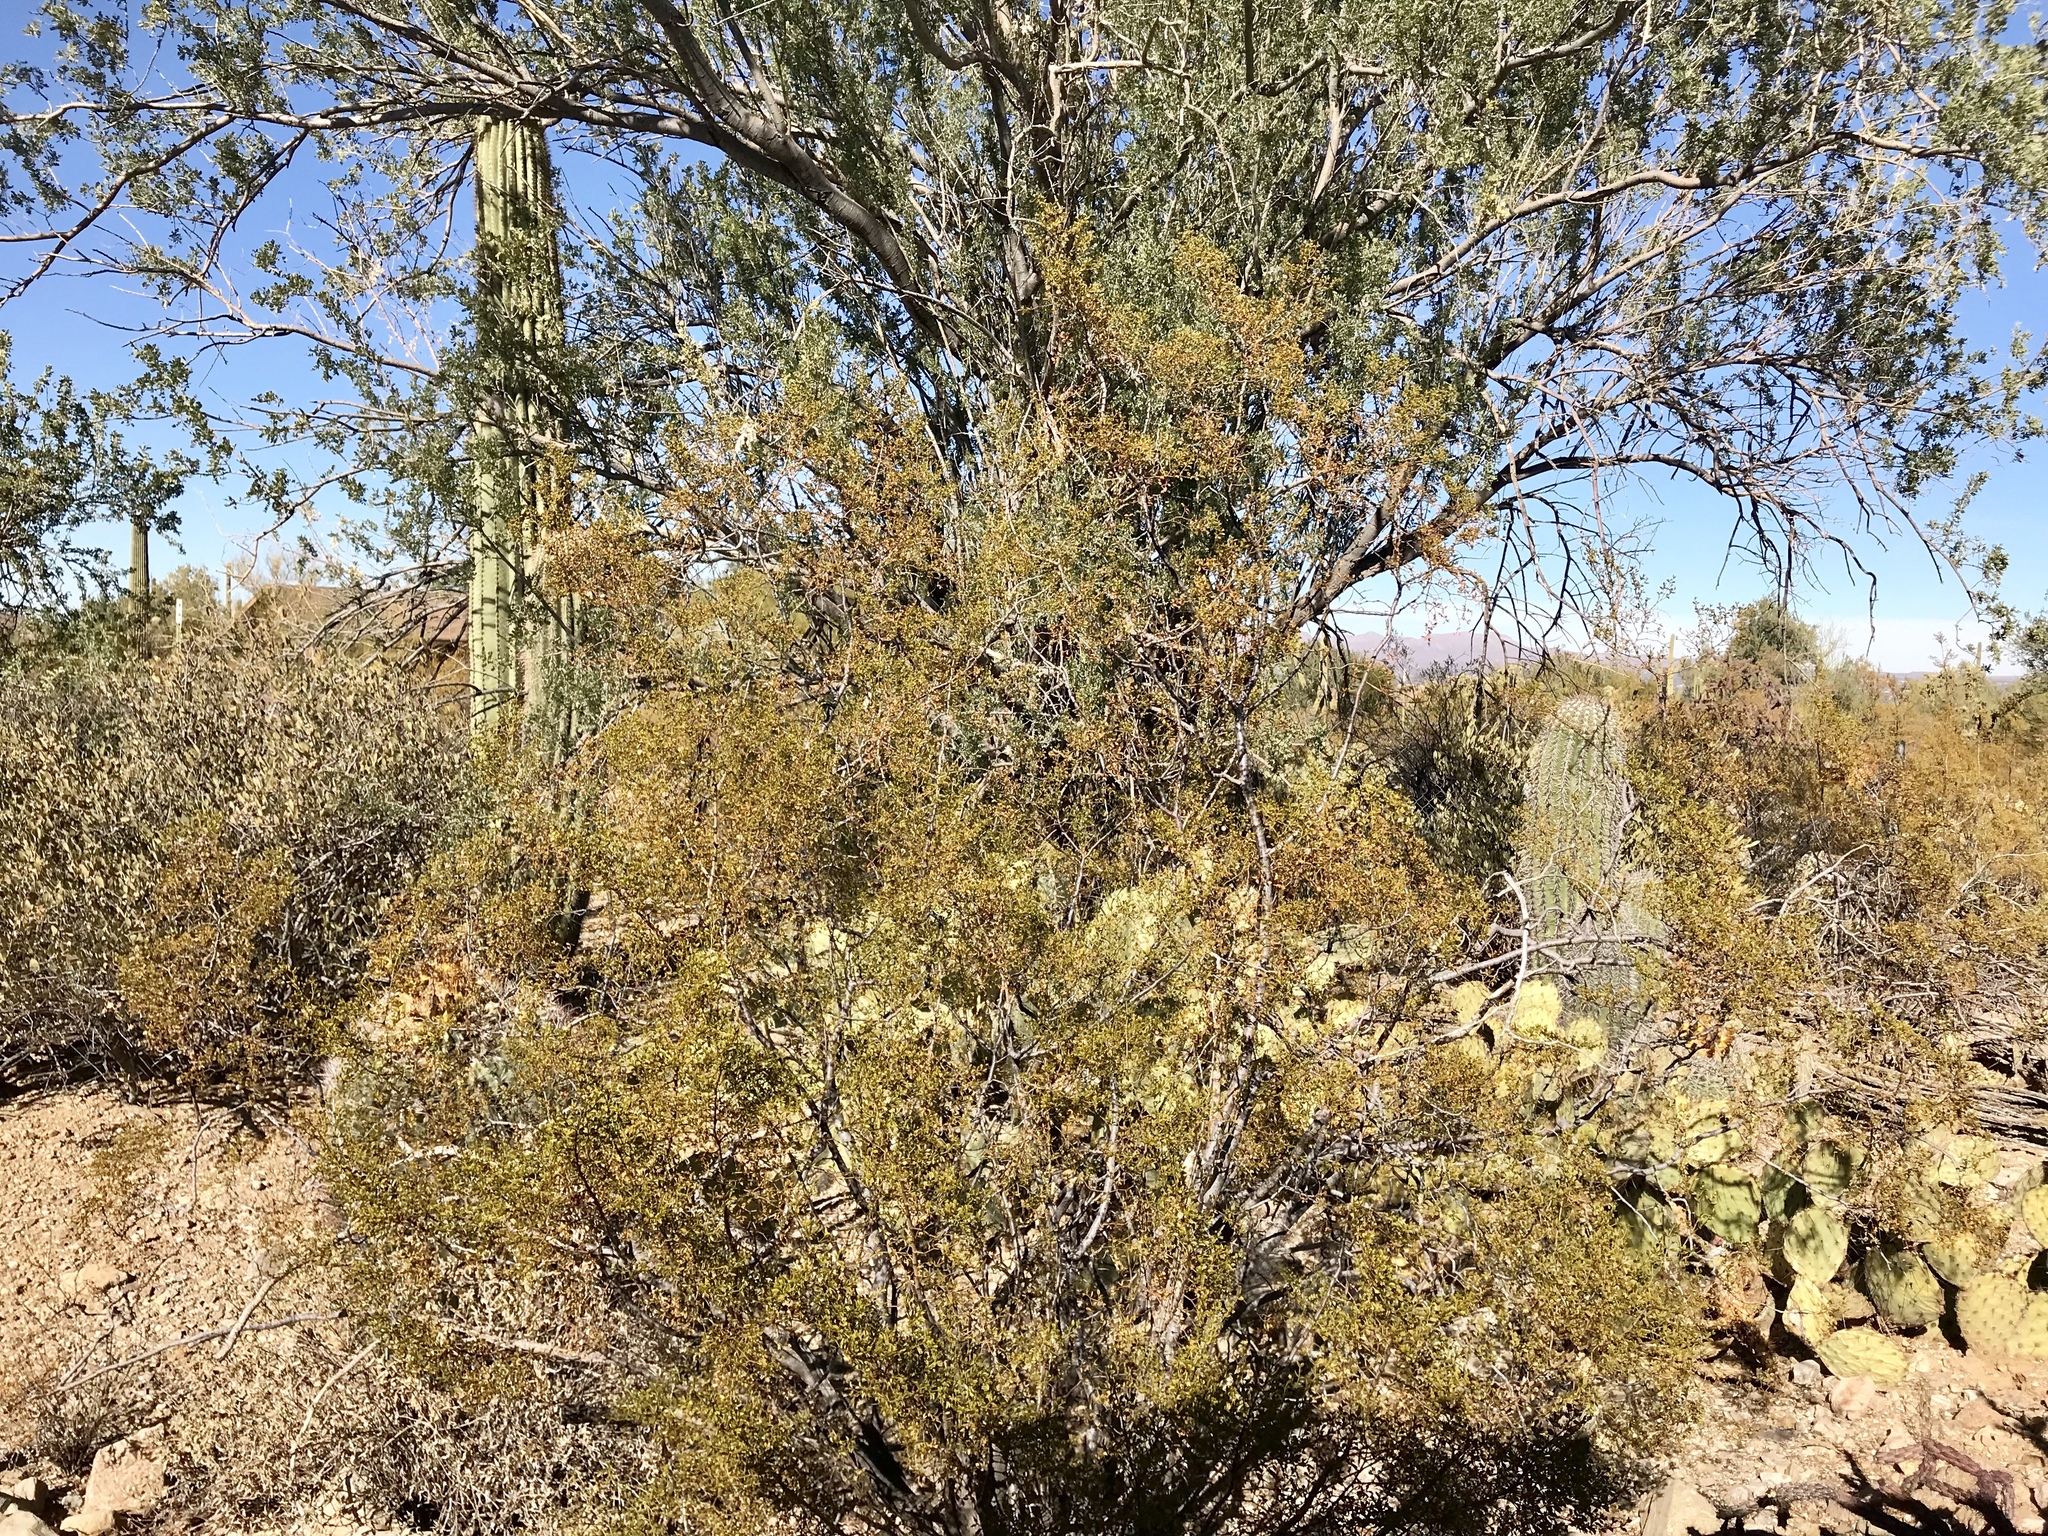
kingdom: Plantae
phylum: Tracheophyta
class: Magnoliopsida
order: Zygophyllales
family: Zygophyllaceae
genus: Larrea
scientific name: Larrea tridentata
